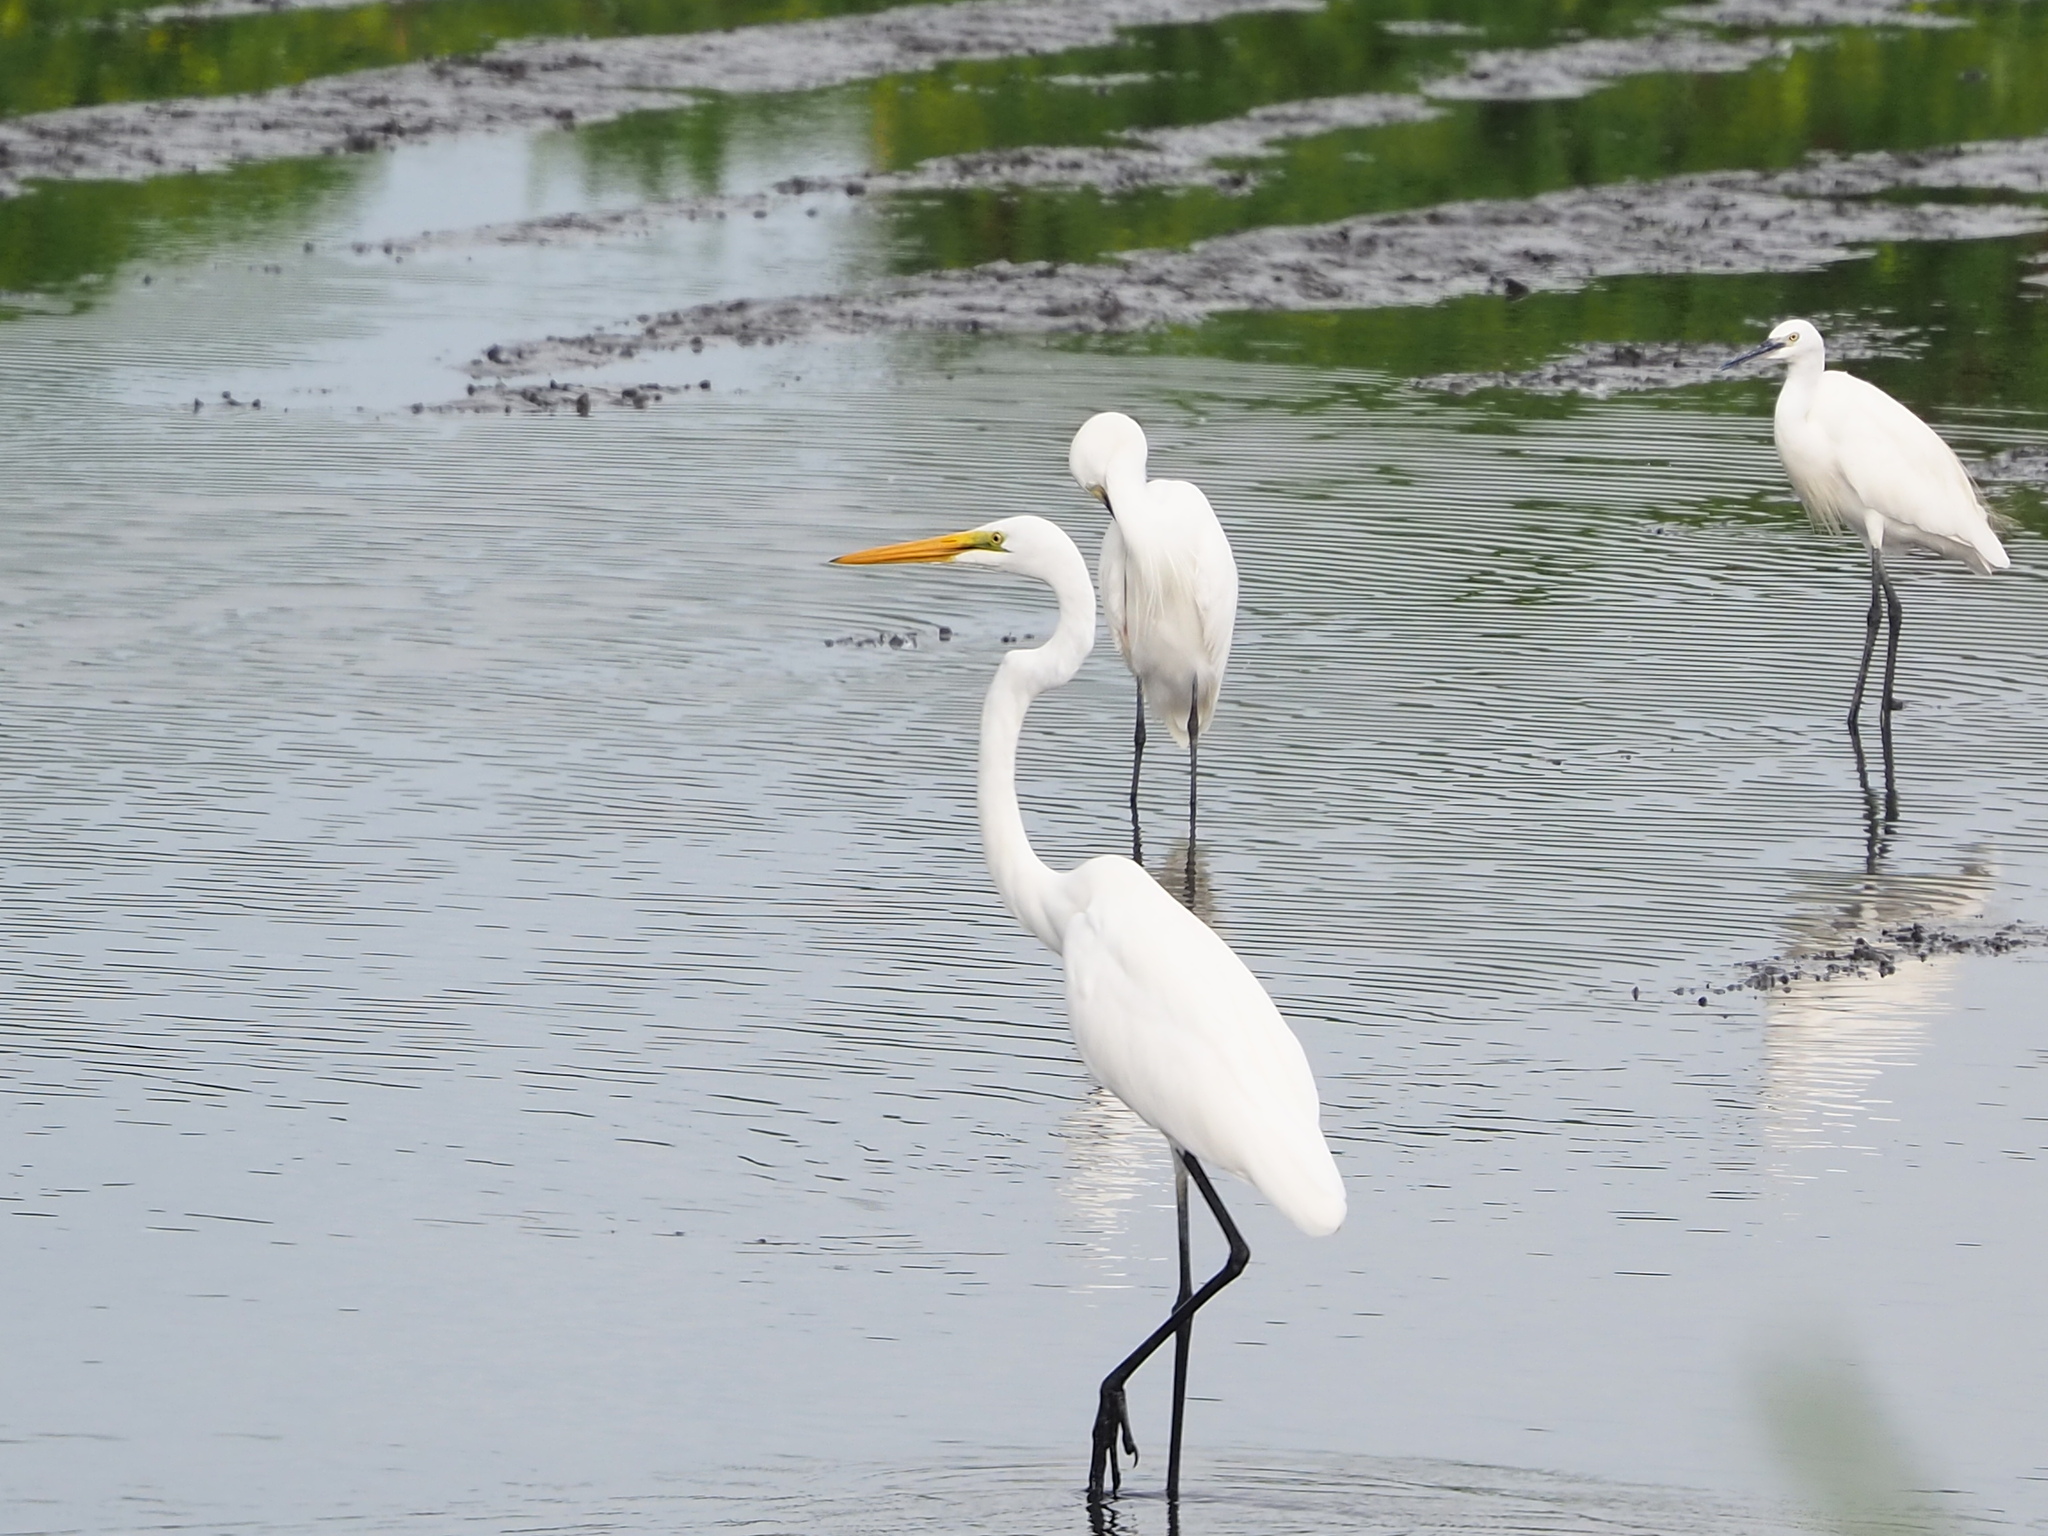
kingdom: Animalia
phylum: Chordata
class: Aves
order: Pelecaniformes
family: Ardeidae
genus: Ardea
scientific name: Ardea modesta
